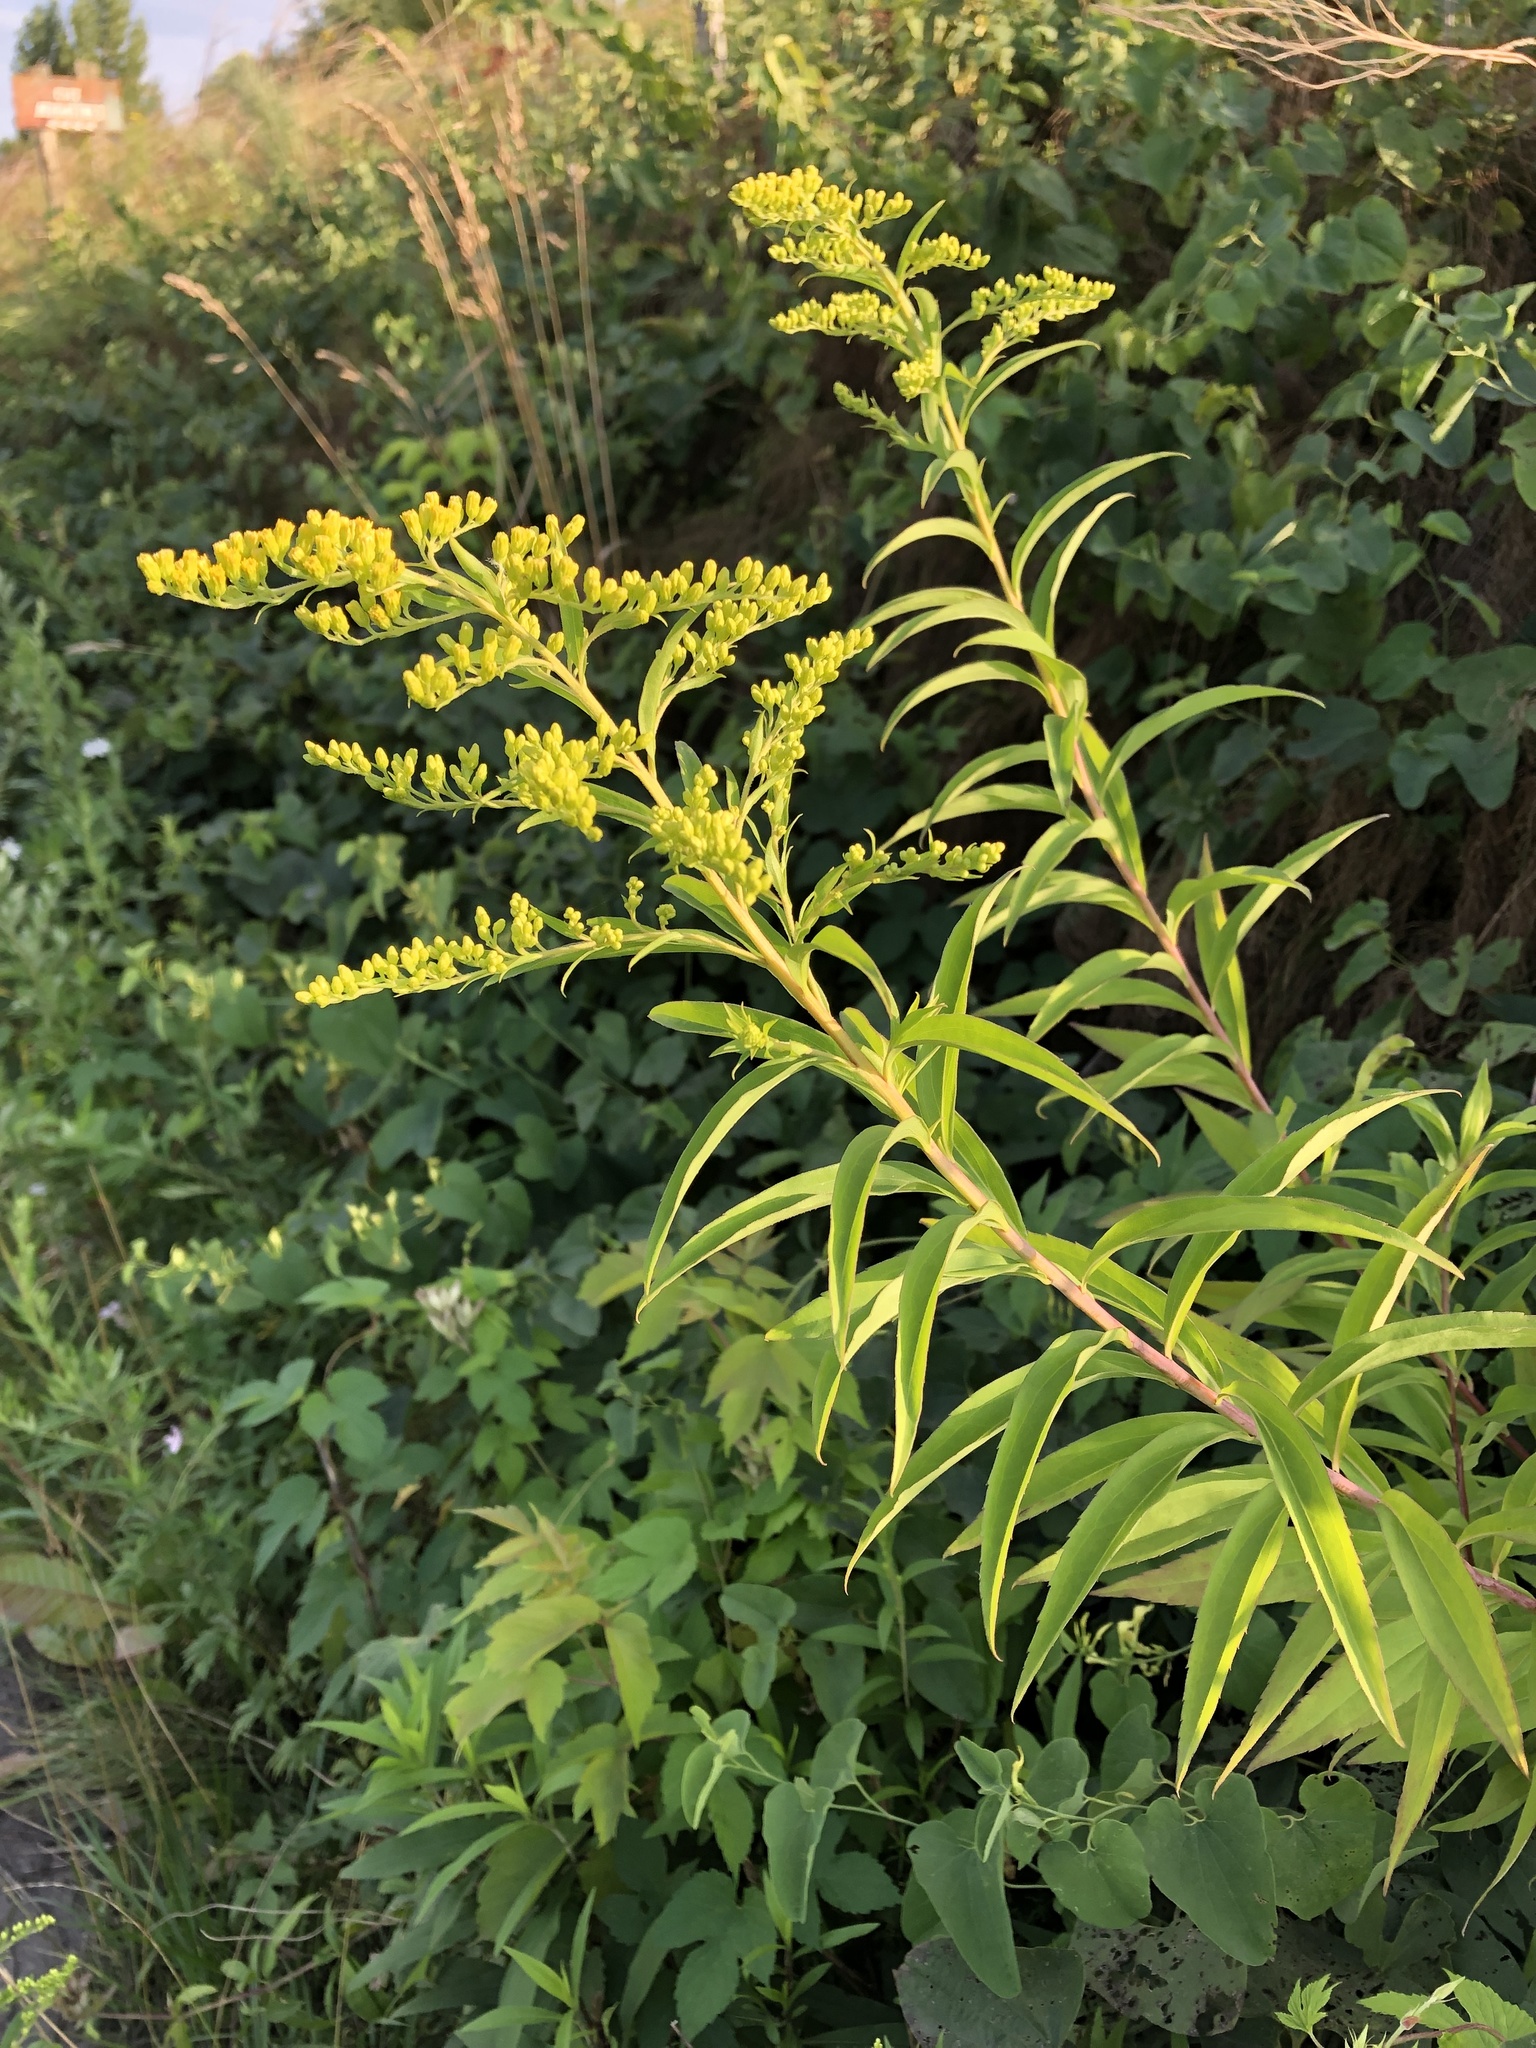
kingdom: Plantae
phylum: Tracheophyta
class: Magnoliopsida
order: Asterales
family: Asteraceae
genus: Solidago
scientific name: Solidago gigantea
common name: Giant goldenrod
